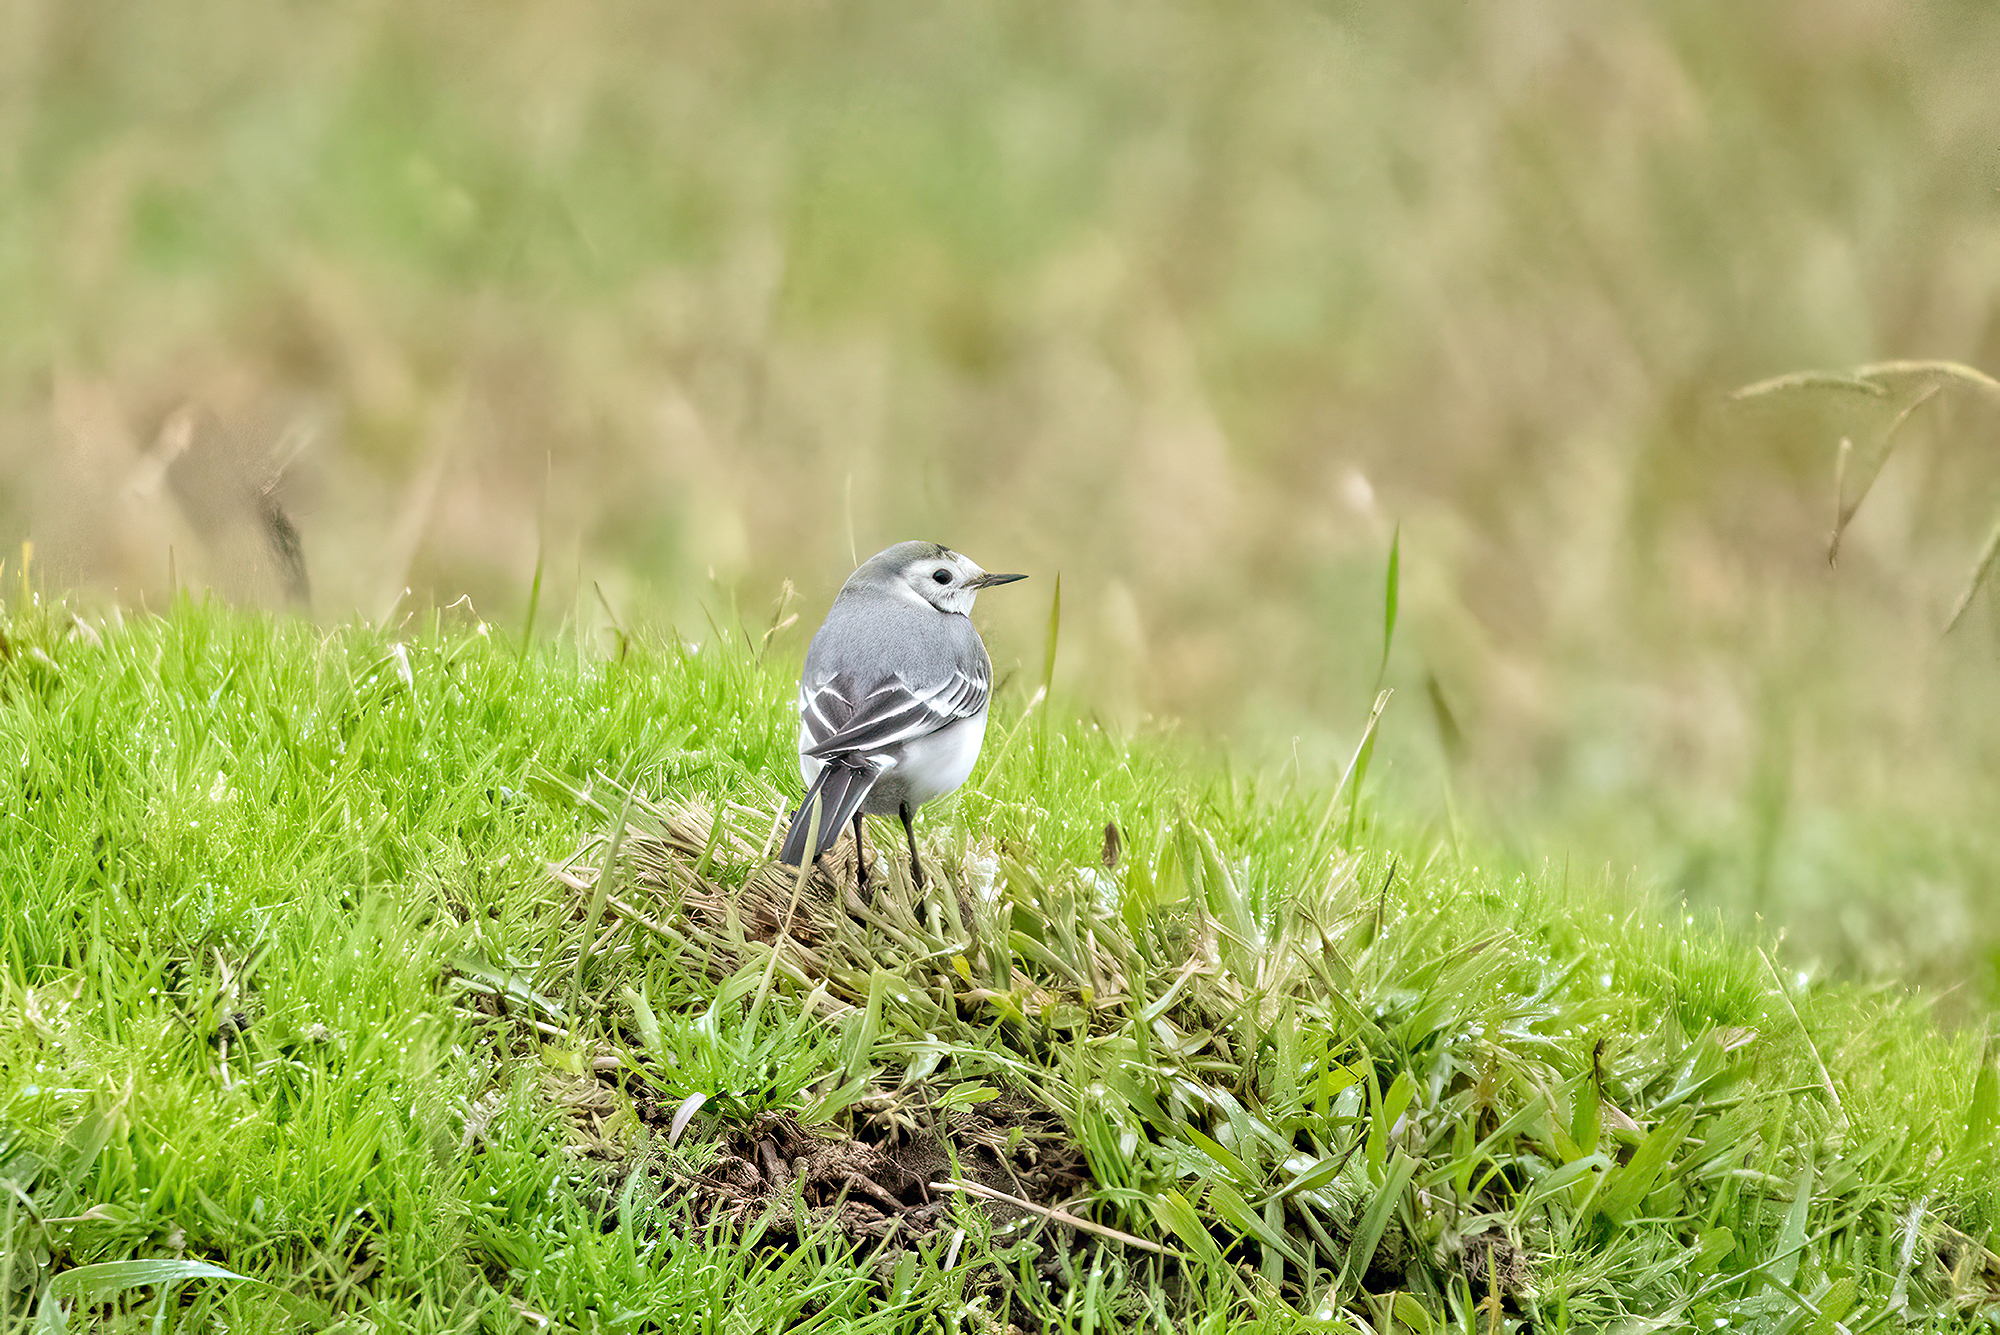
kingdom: Animalia
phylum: Chordata
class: Aves
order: Passeriformes
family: Motacillidae
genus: Motacilla
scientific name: Motacilla alba
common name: White wagtail
